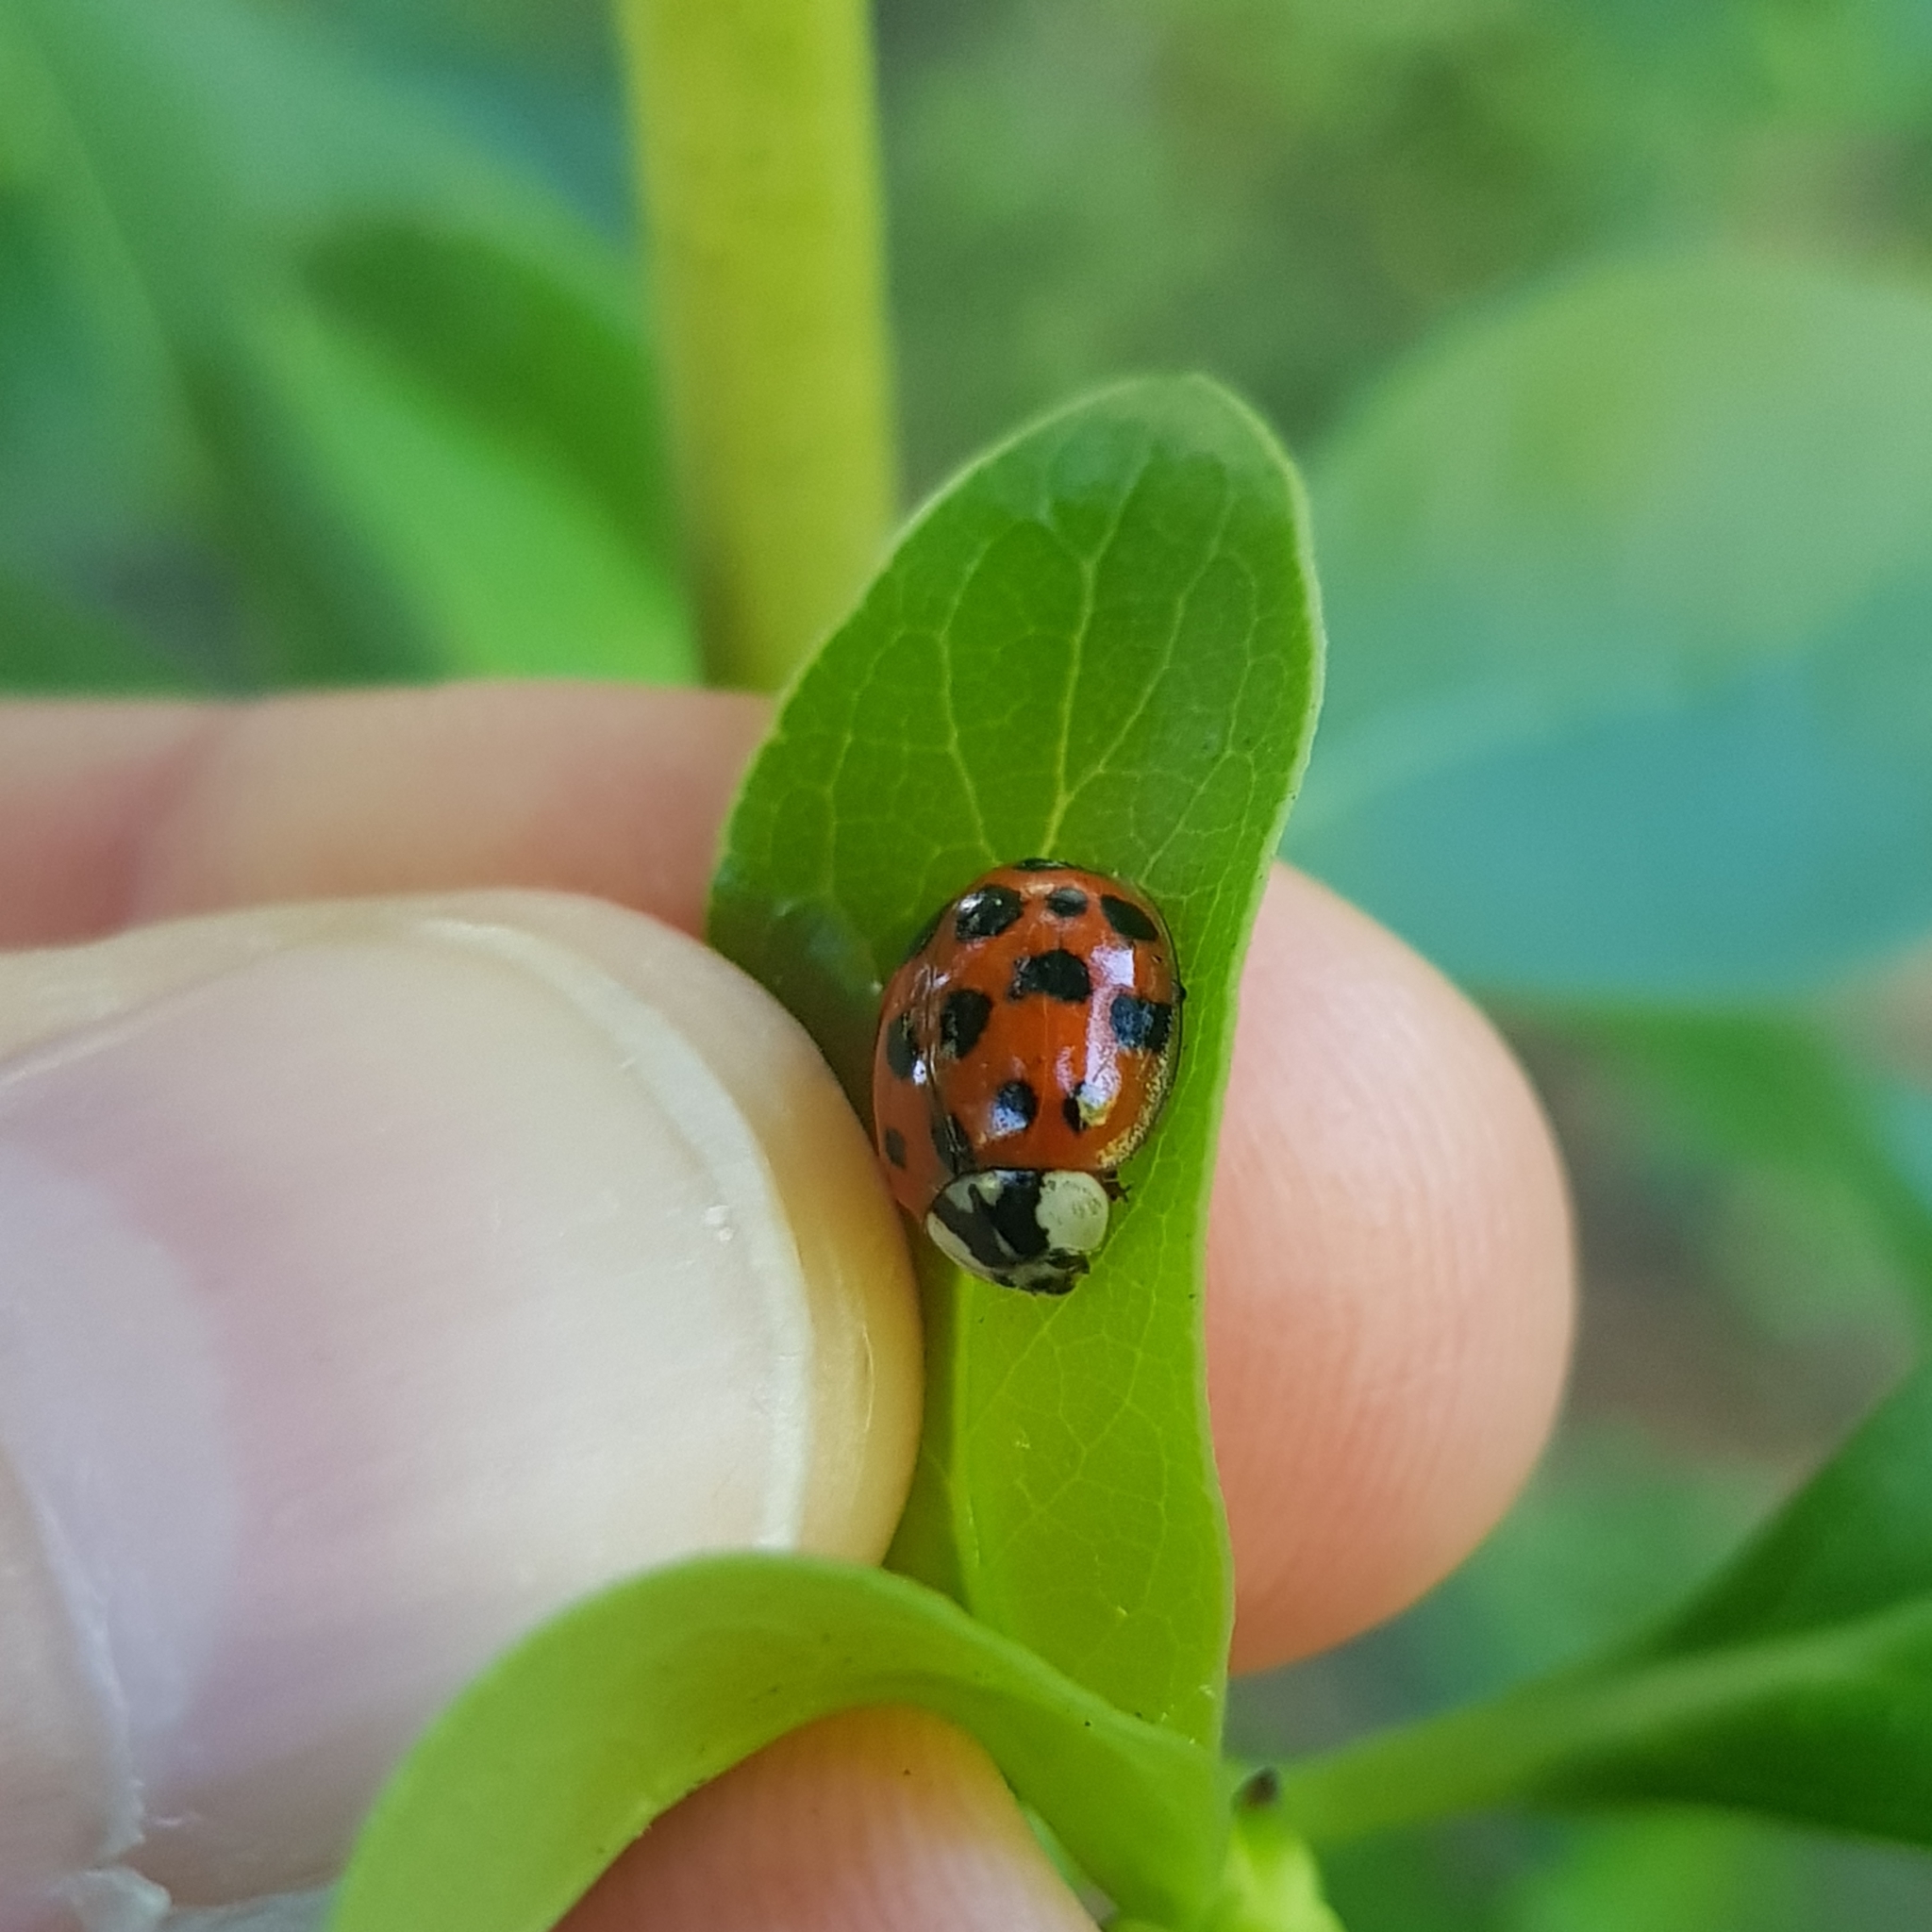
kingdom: Animalia
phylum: Arthropoda
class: Insecta
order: Coleoptera
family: Coccinellidae
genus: Harmonia
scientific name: Harmonia axyridis
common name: Harlequin ladybird
